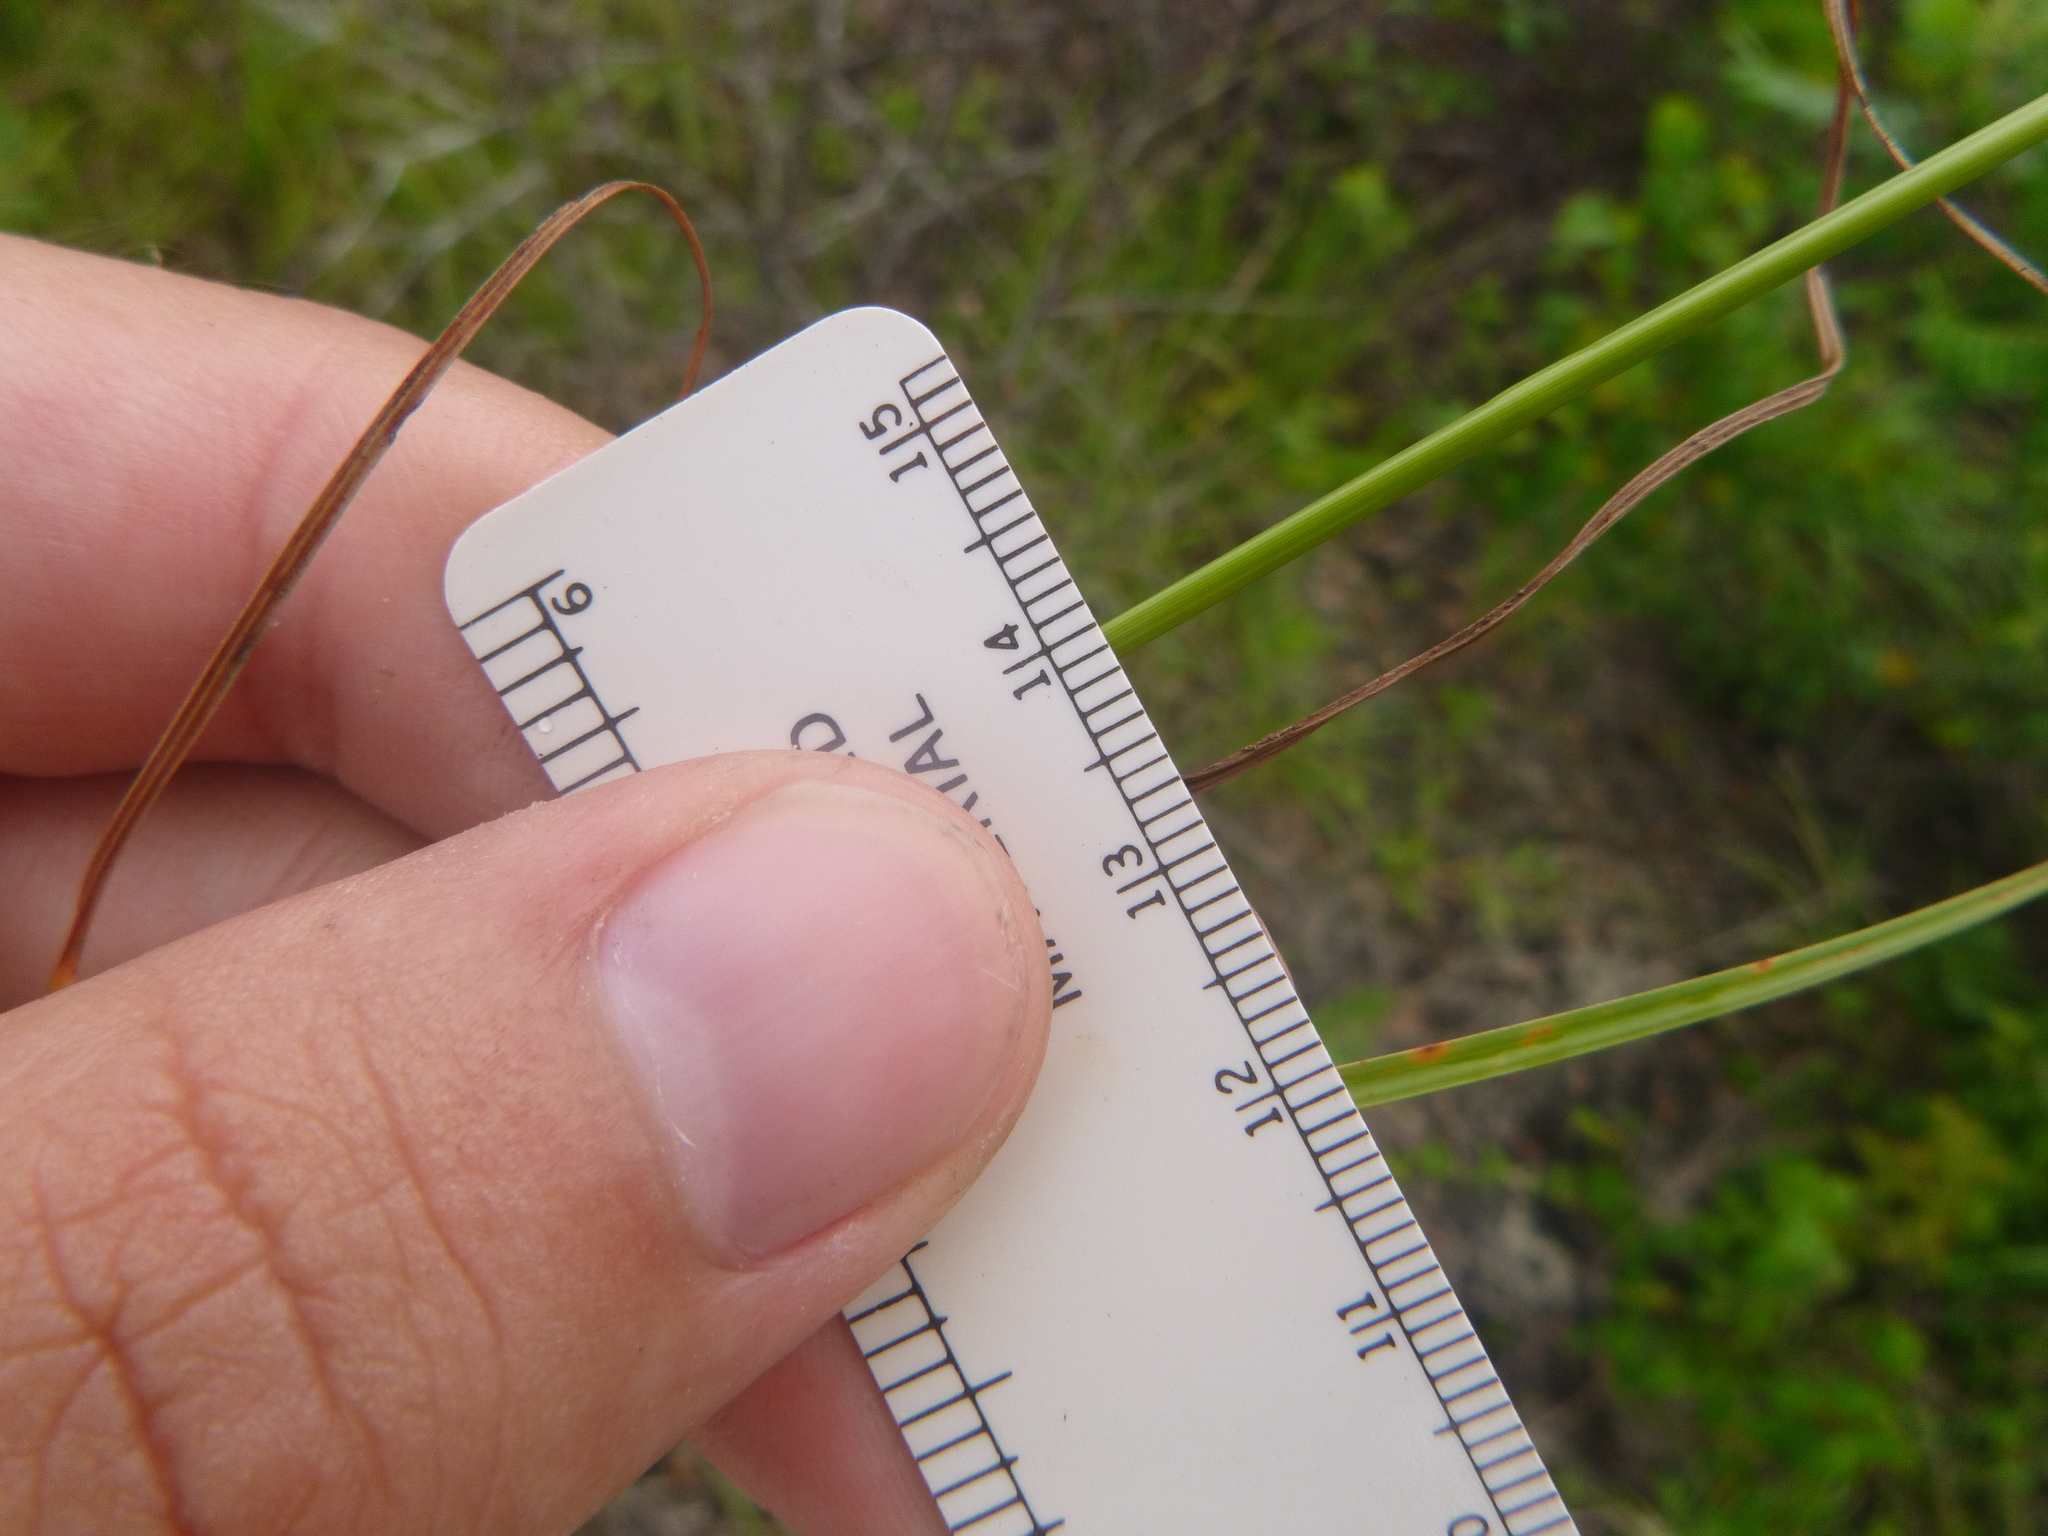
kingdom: Plantae
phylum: Tracheophyta
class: Liliopsida
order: Poales
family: Cyperaceae
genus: Cyperus
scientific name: Cyperus filiculmis
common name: Slender sand sedge
